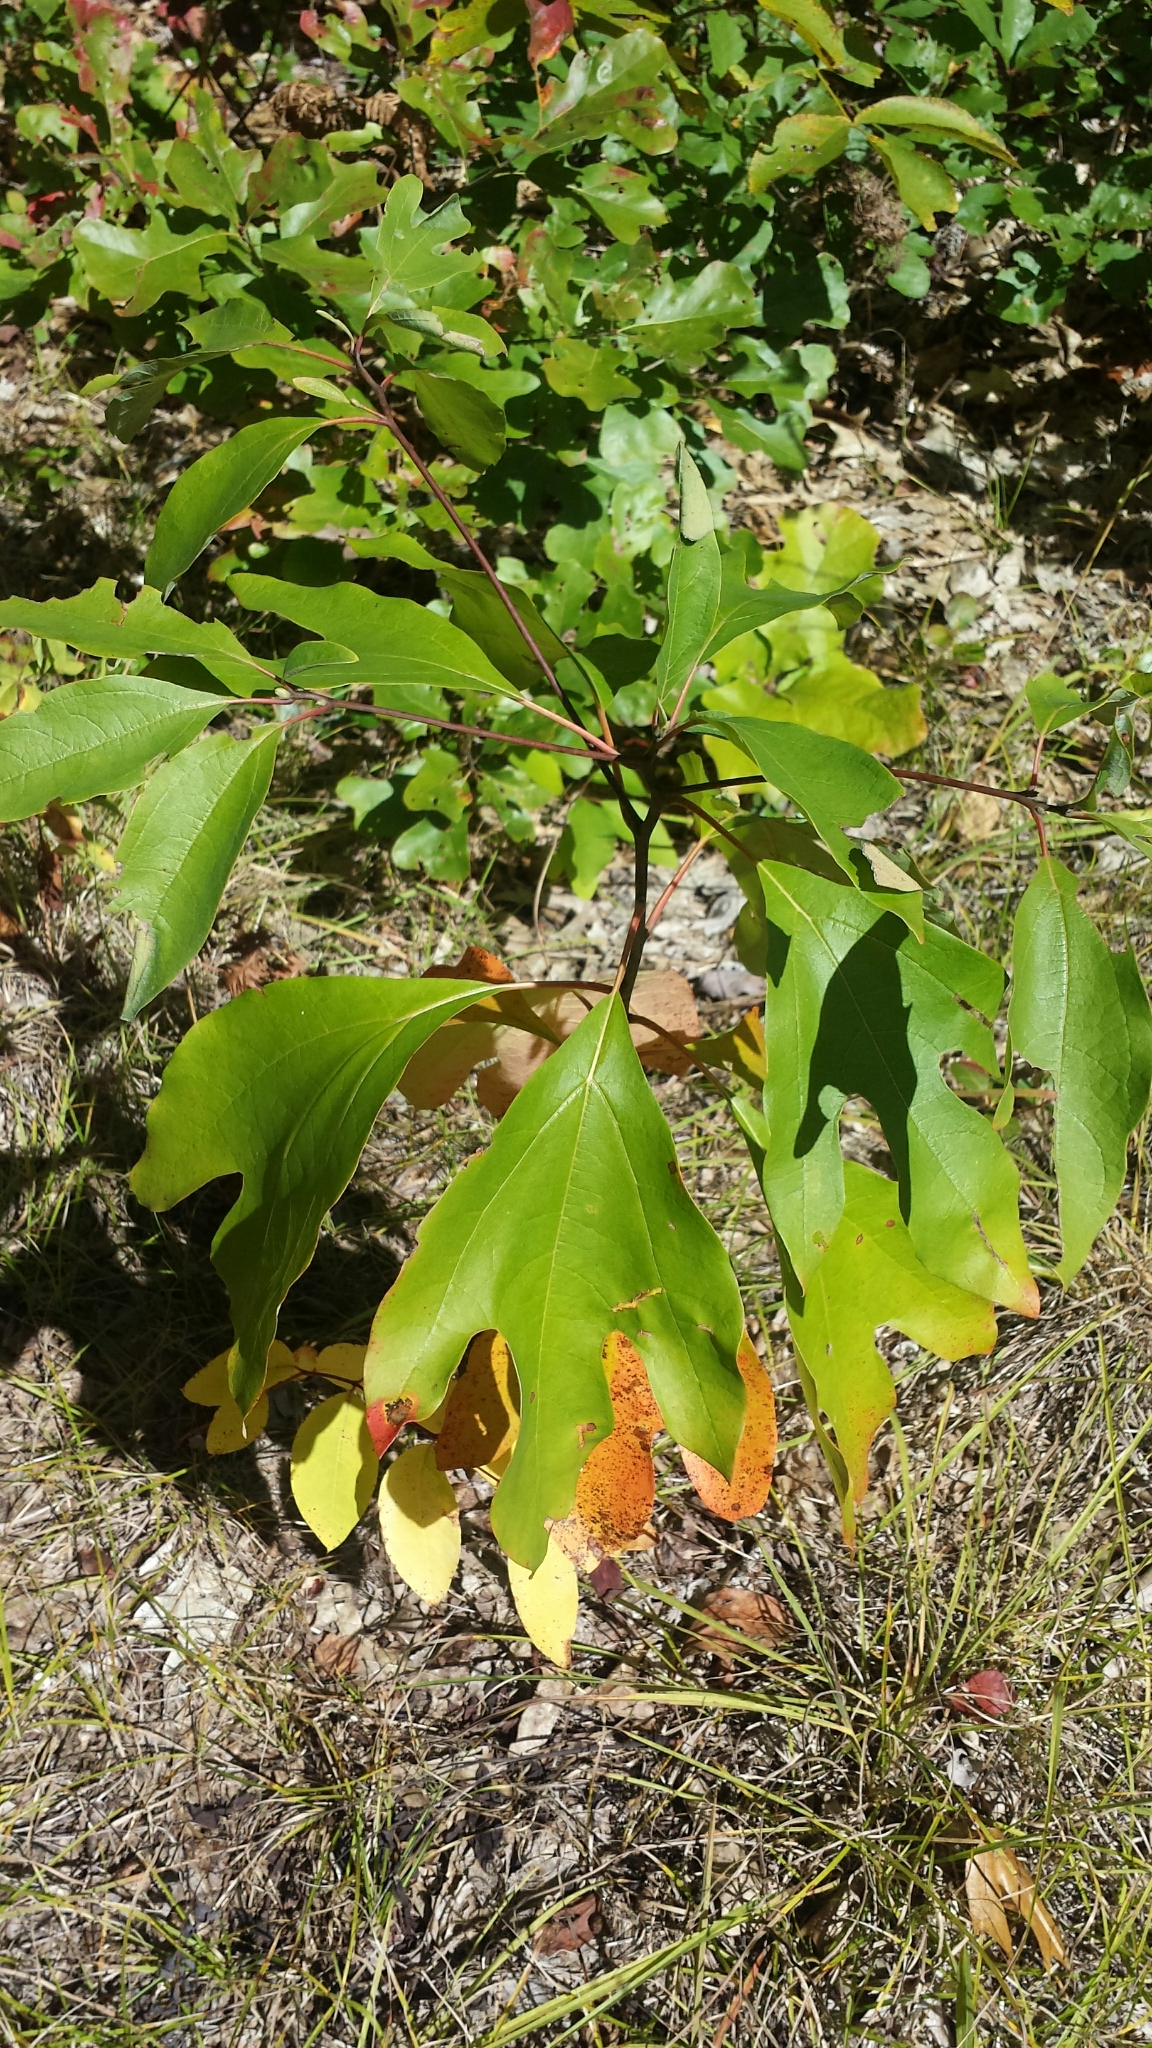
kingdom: Plantae
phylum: Tracheophyta
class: Magnoliopsida
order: Laurales
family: Lauraceae
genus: Sassafras
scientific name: Sassafras albidum
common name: Sassafras
